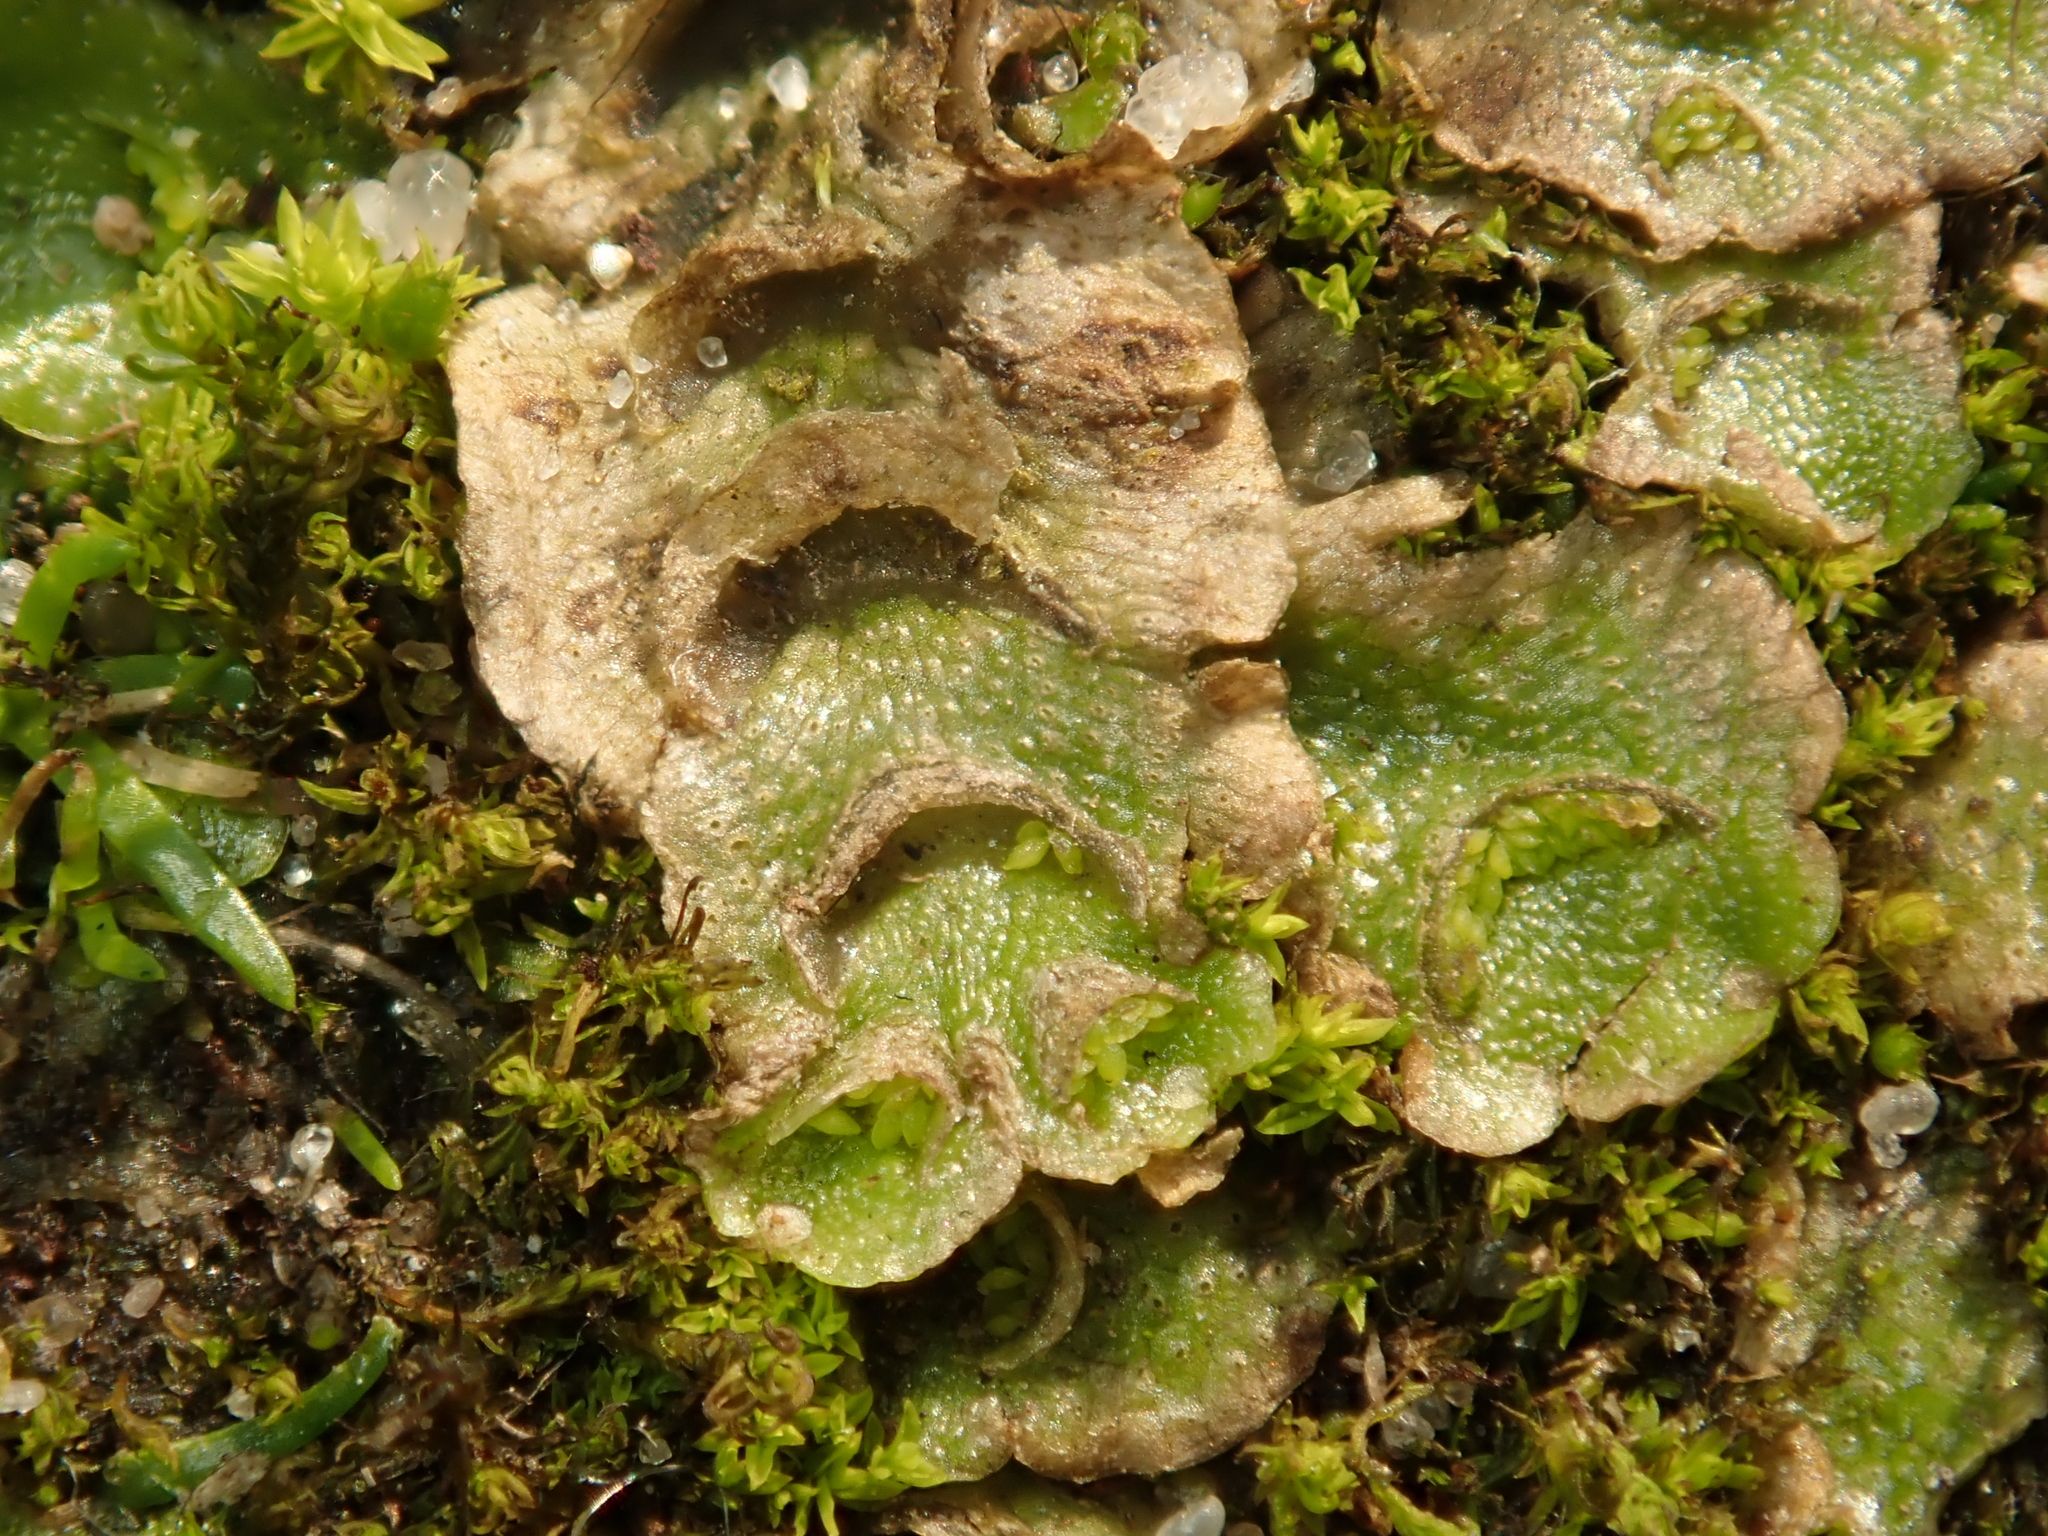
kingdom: Plantae
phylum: Marchantiophyta
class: Marchantiopsida
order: Lunulariales
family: Lunulariaceae
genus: Lunularia
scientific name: Lunularia cruciata
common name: Crescent-cup liverwort
